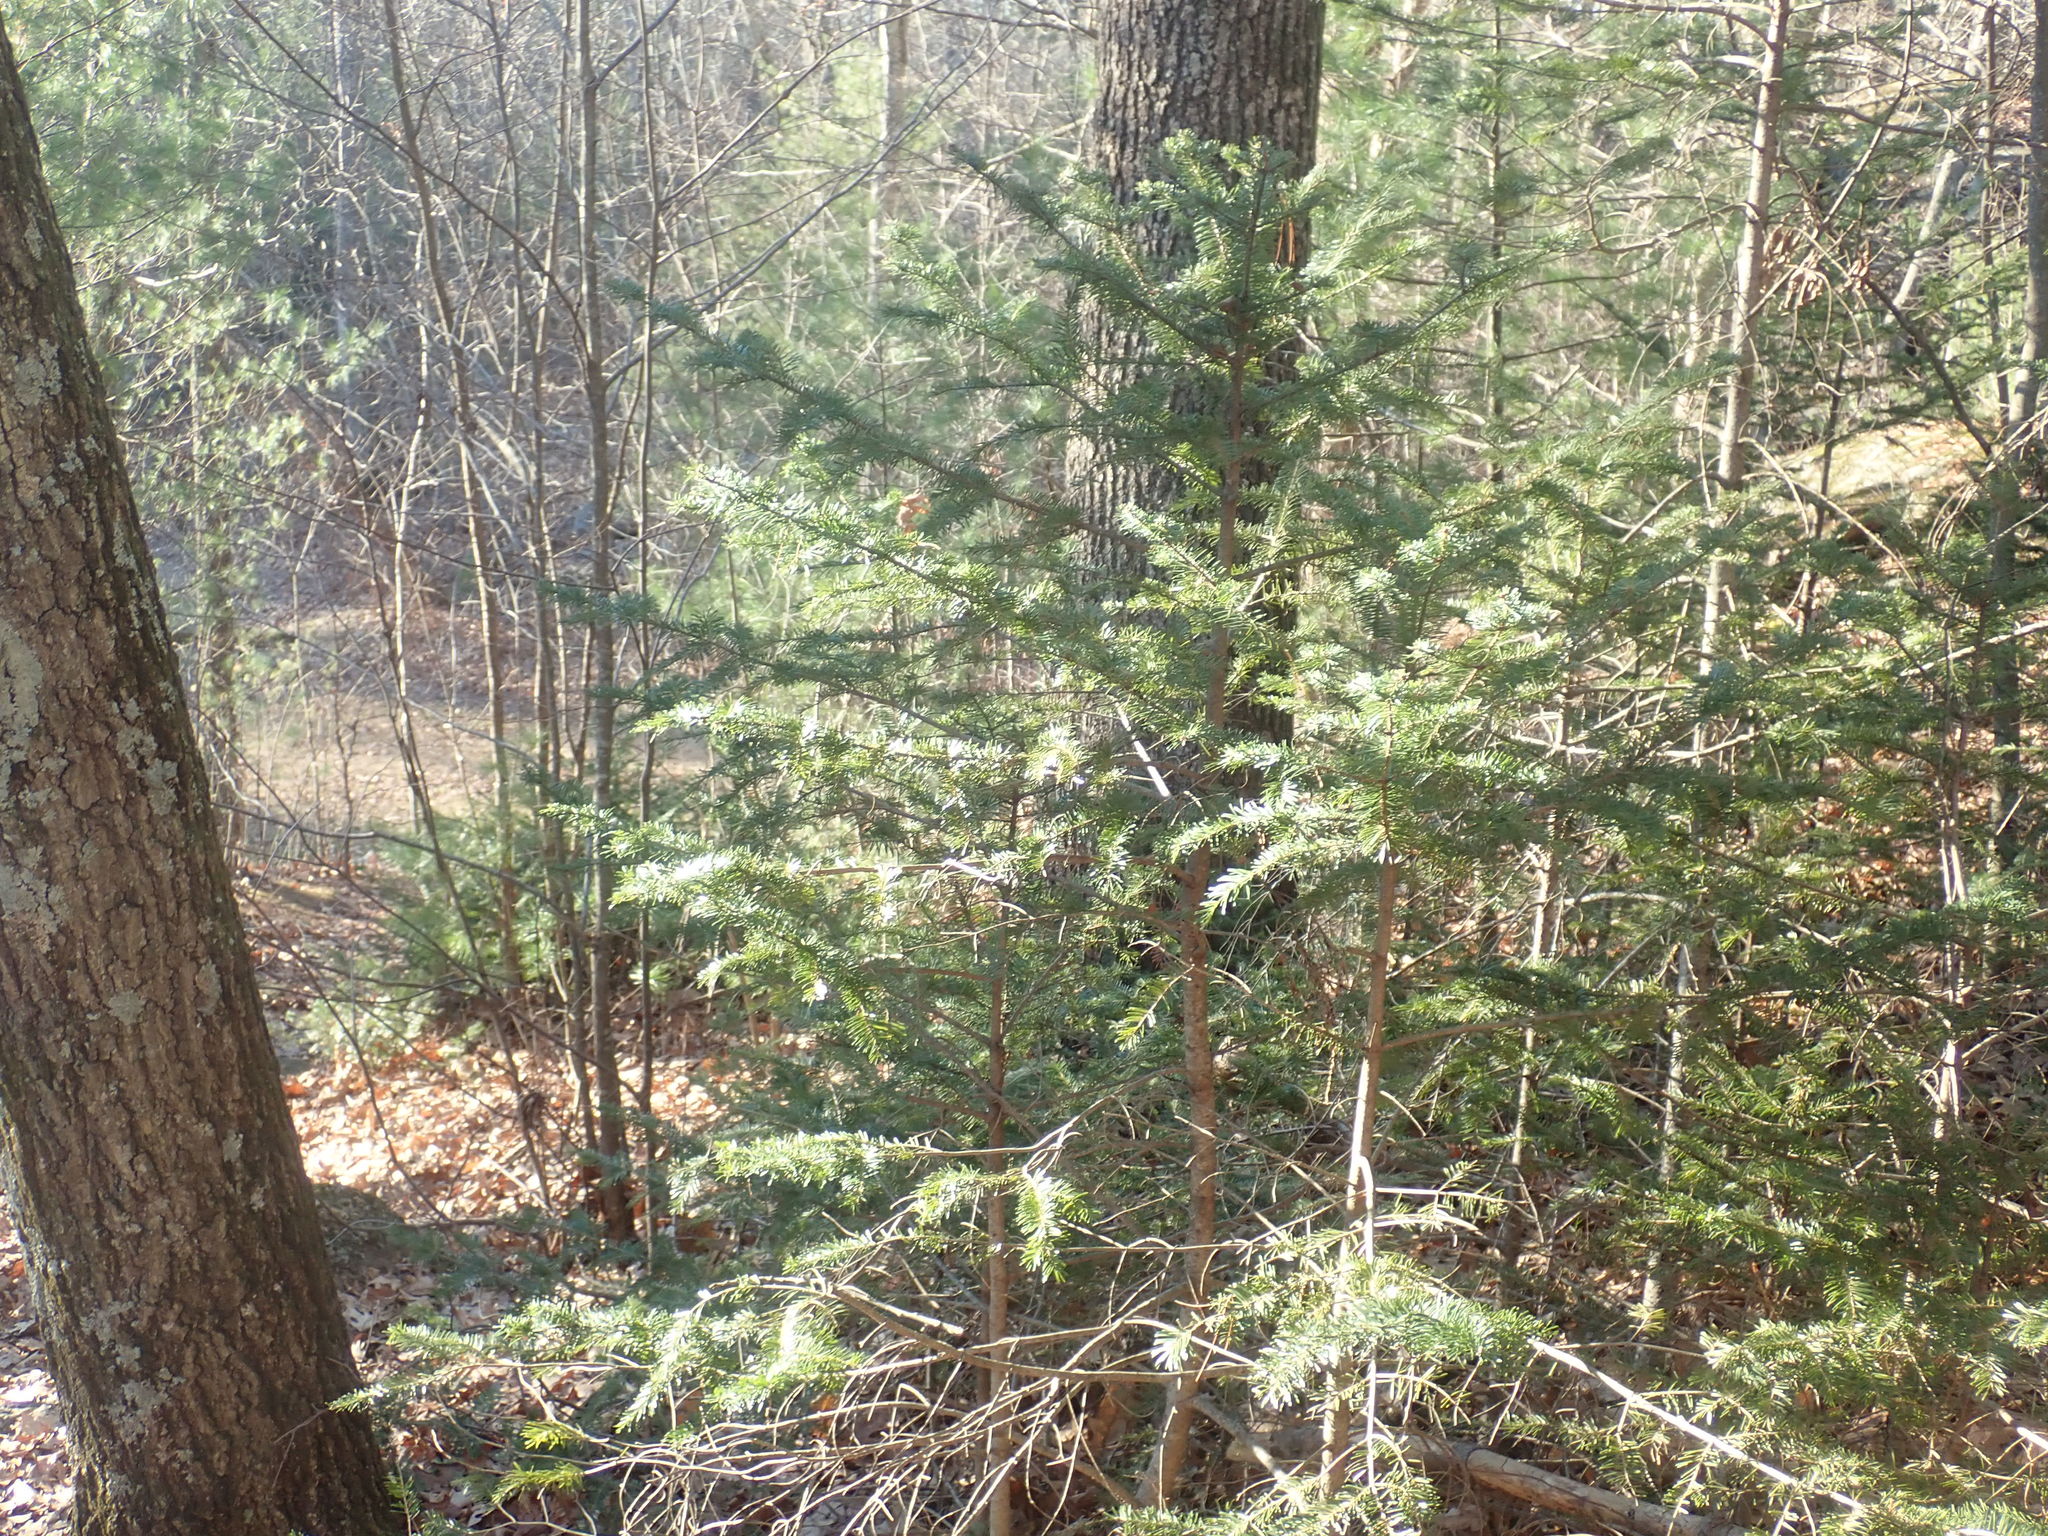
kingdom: Plantae
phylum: Tracheophyta
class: Pinopsida
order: Pinales
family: Pinaceae
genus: Abies
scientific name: Abies balsamea
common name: Balsam fir
